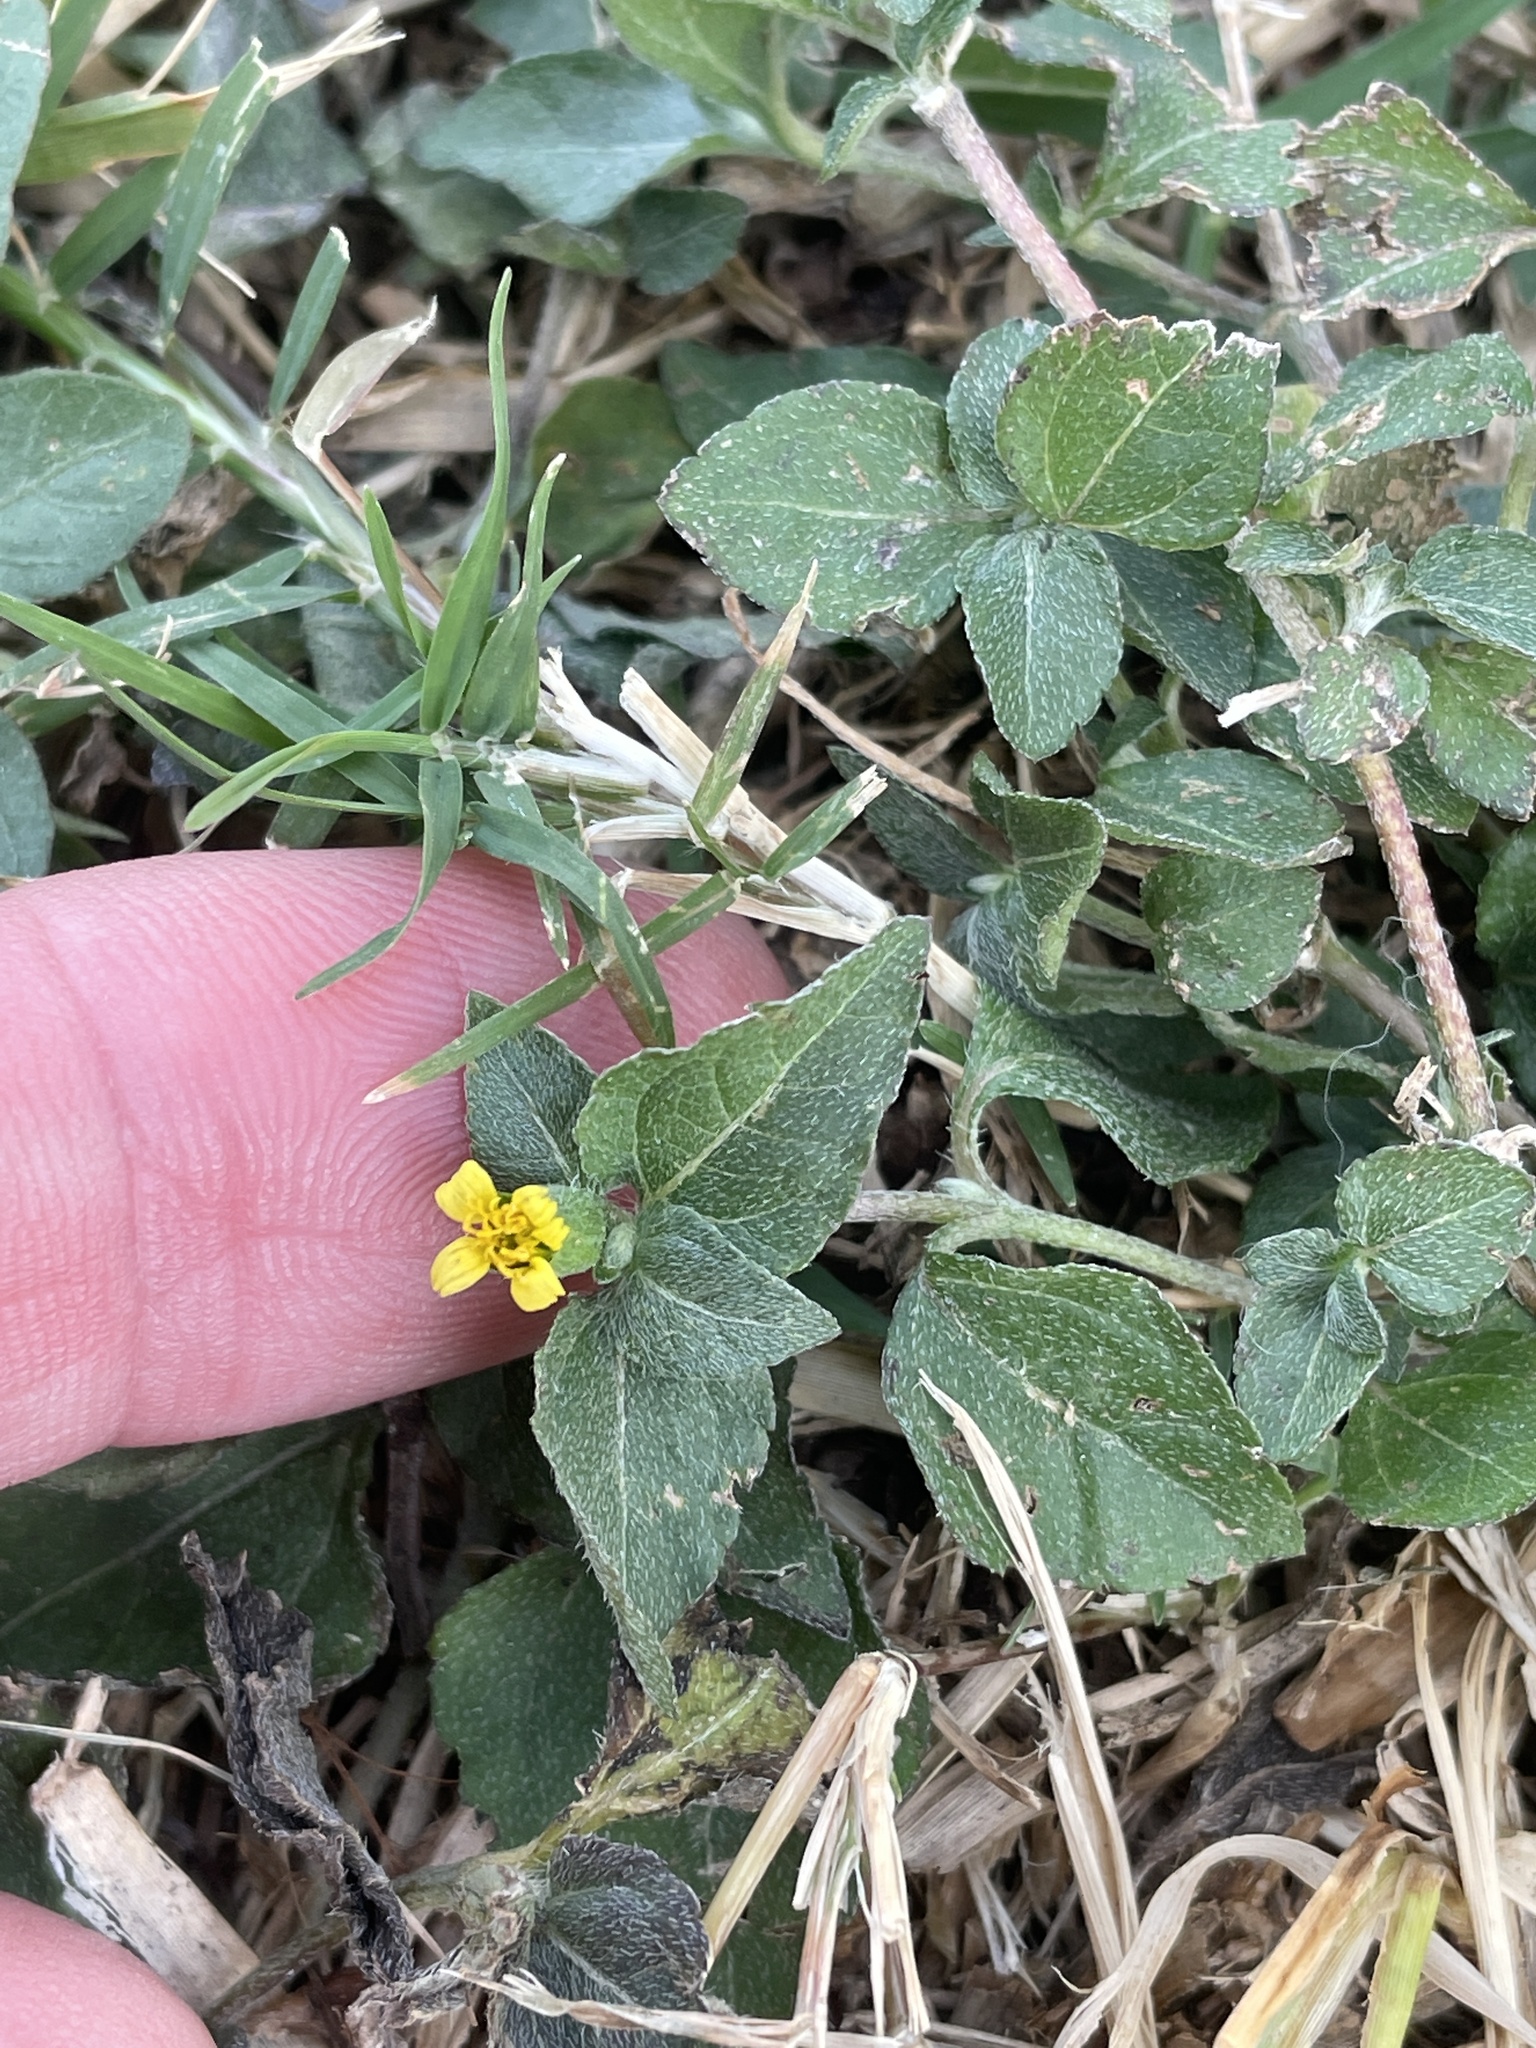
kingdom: Plantae
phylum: Tracheophyta
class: Magnoliopsida
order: Asterales
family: Asteraceae
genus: Calyptocarpus
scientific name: Calyptocarpus vialis
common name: Straggler daisy
